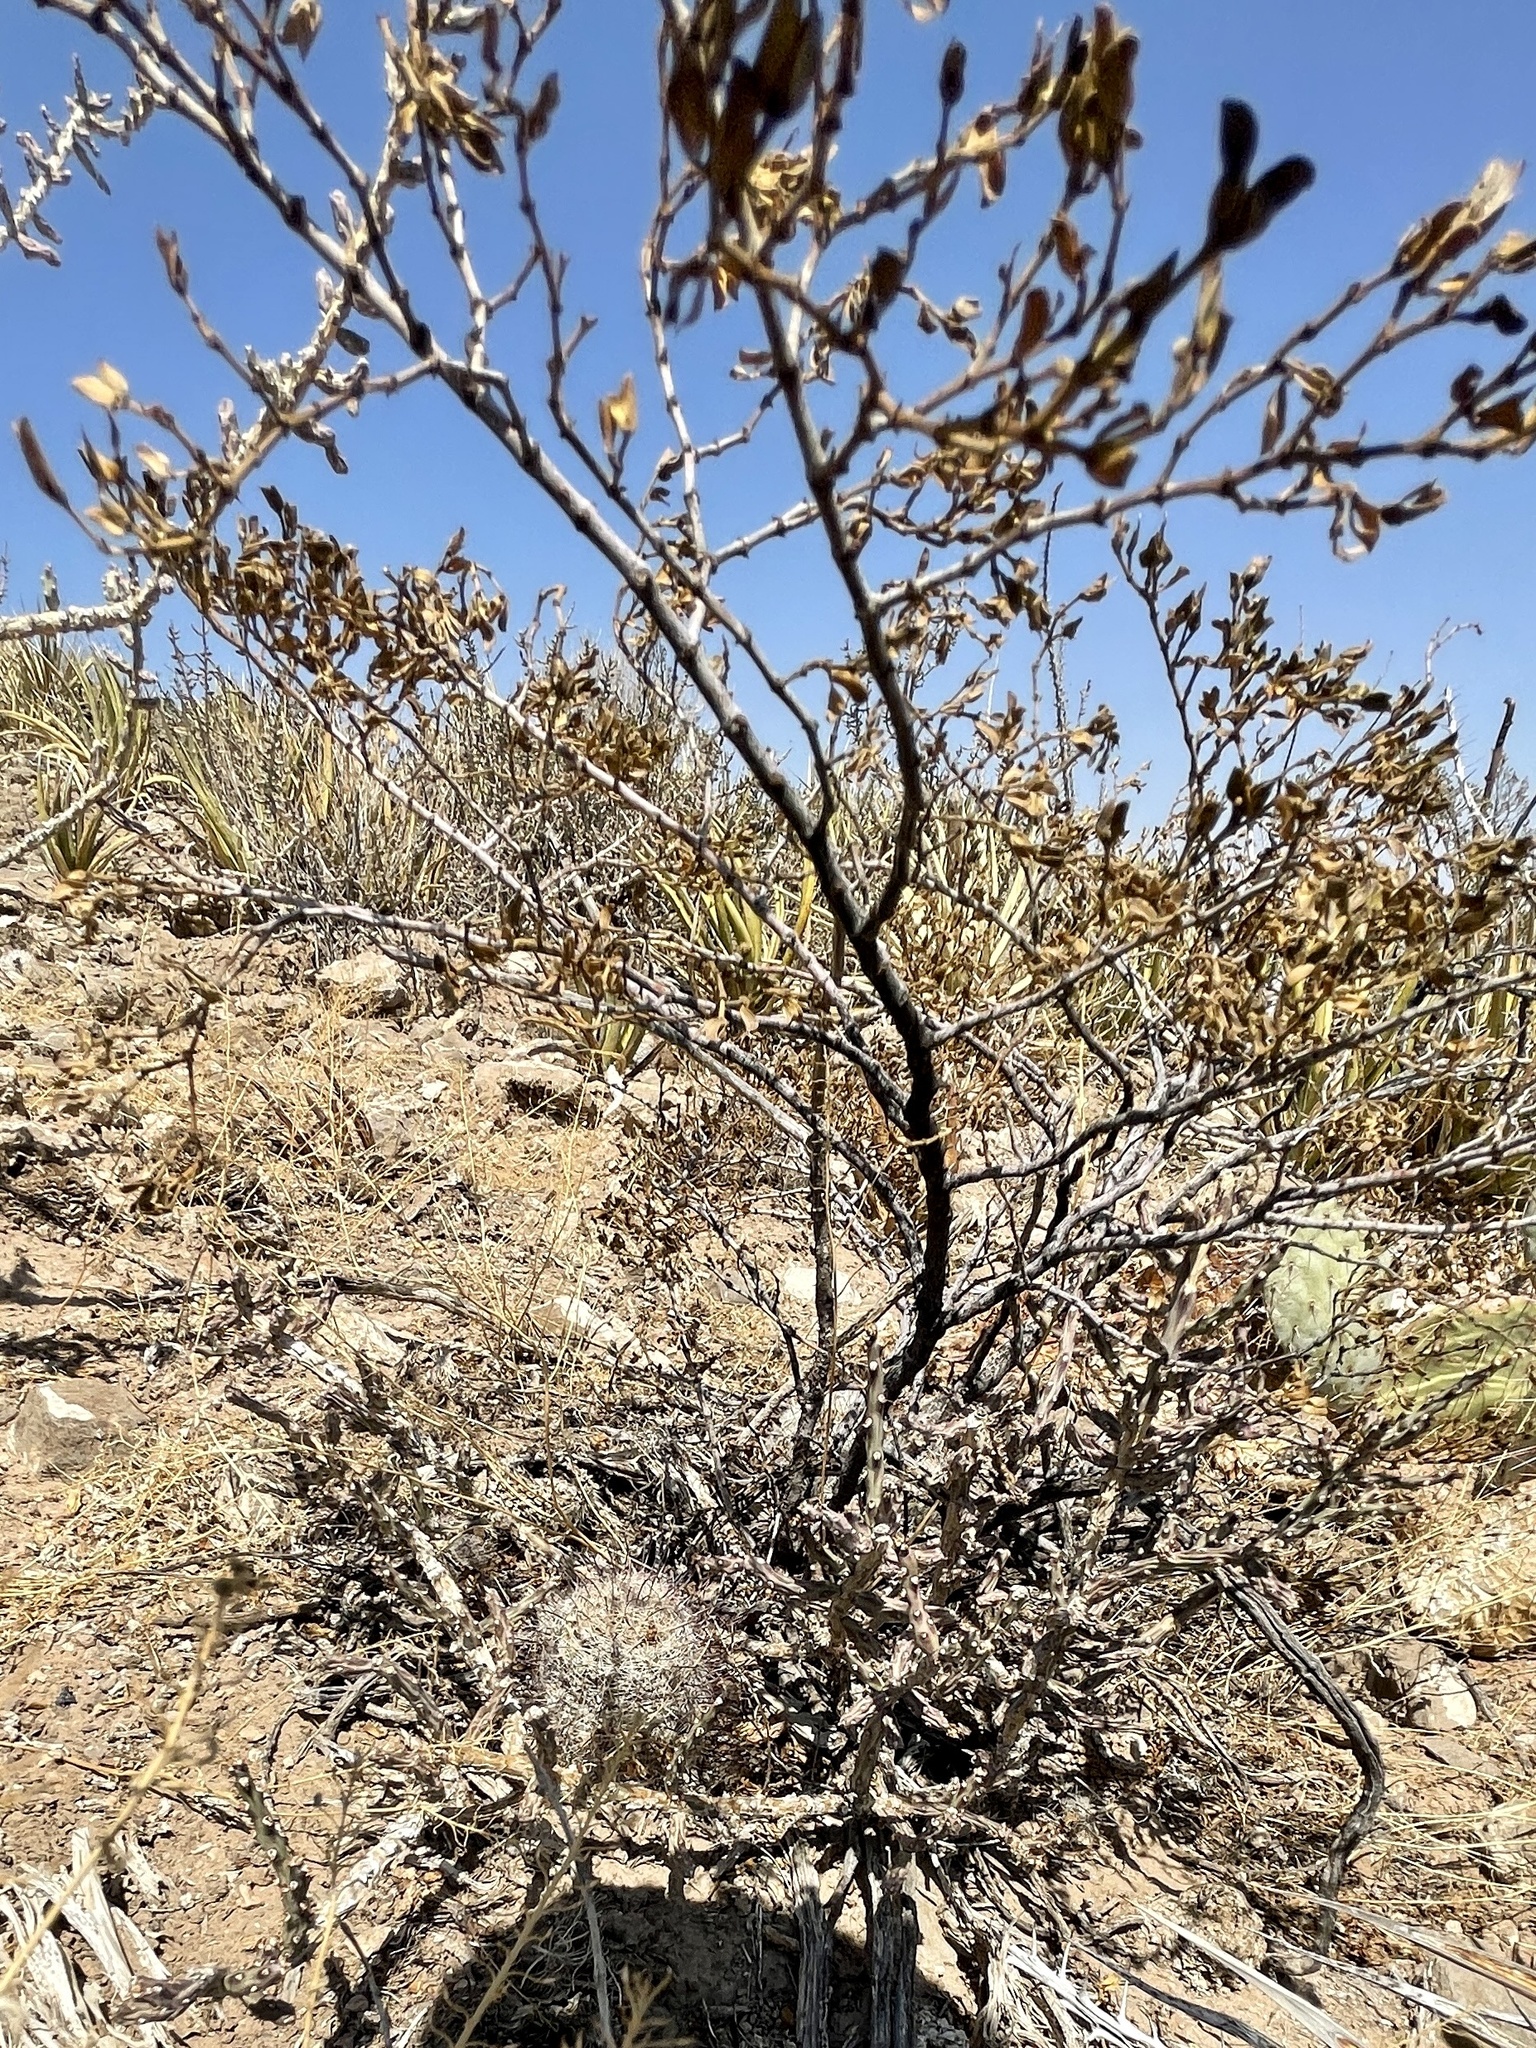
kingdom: Plantae
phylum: Tracheophyta
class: Magnoliopsida
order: Zygophyllales
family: Zygophyllaceae
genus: Larrea
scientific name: Larrea tridentata
